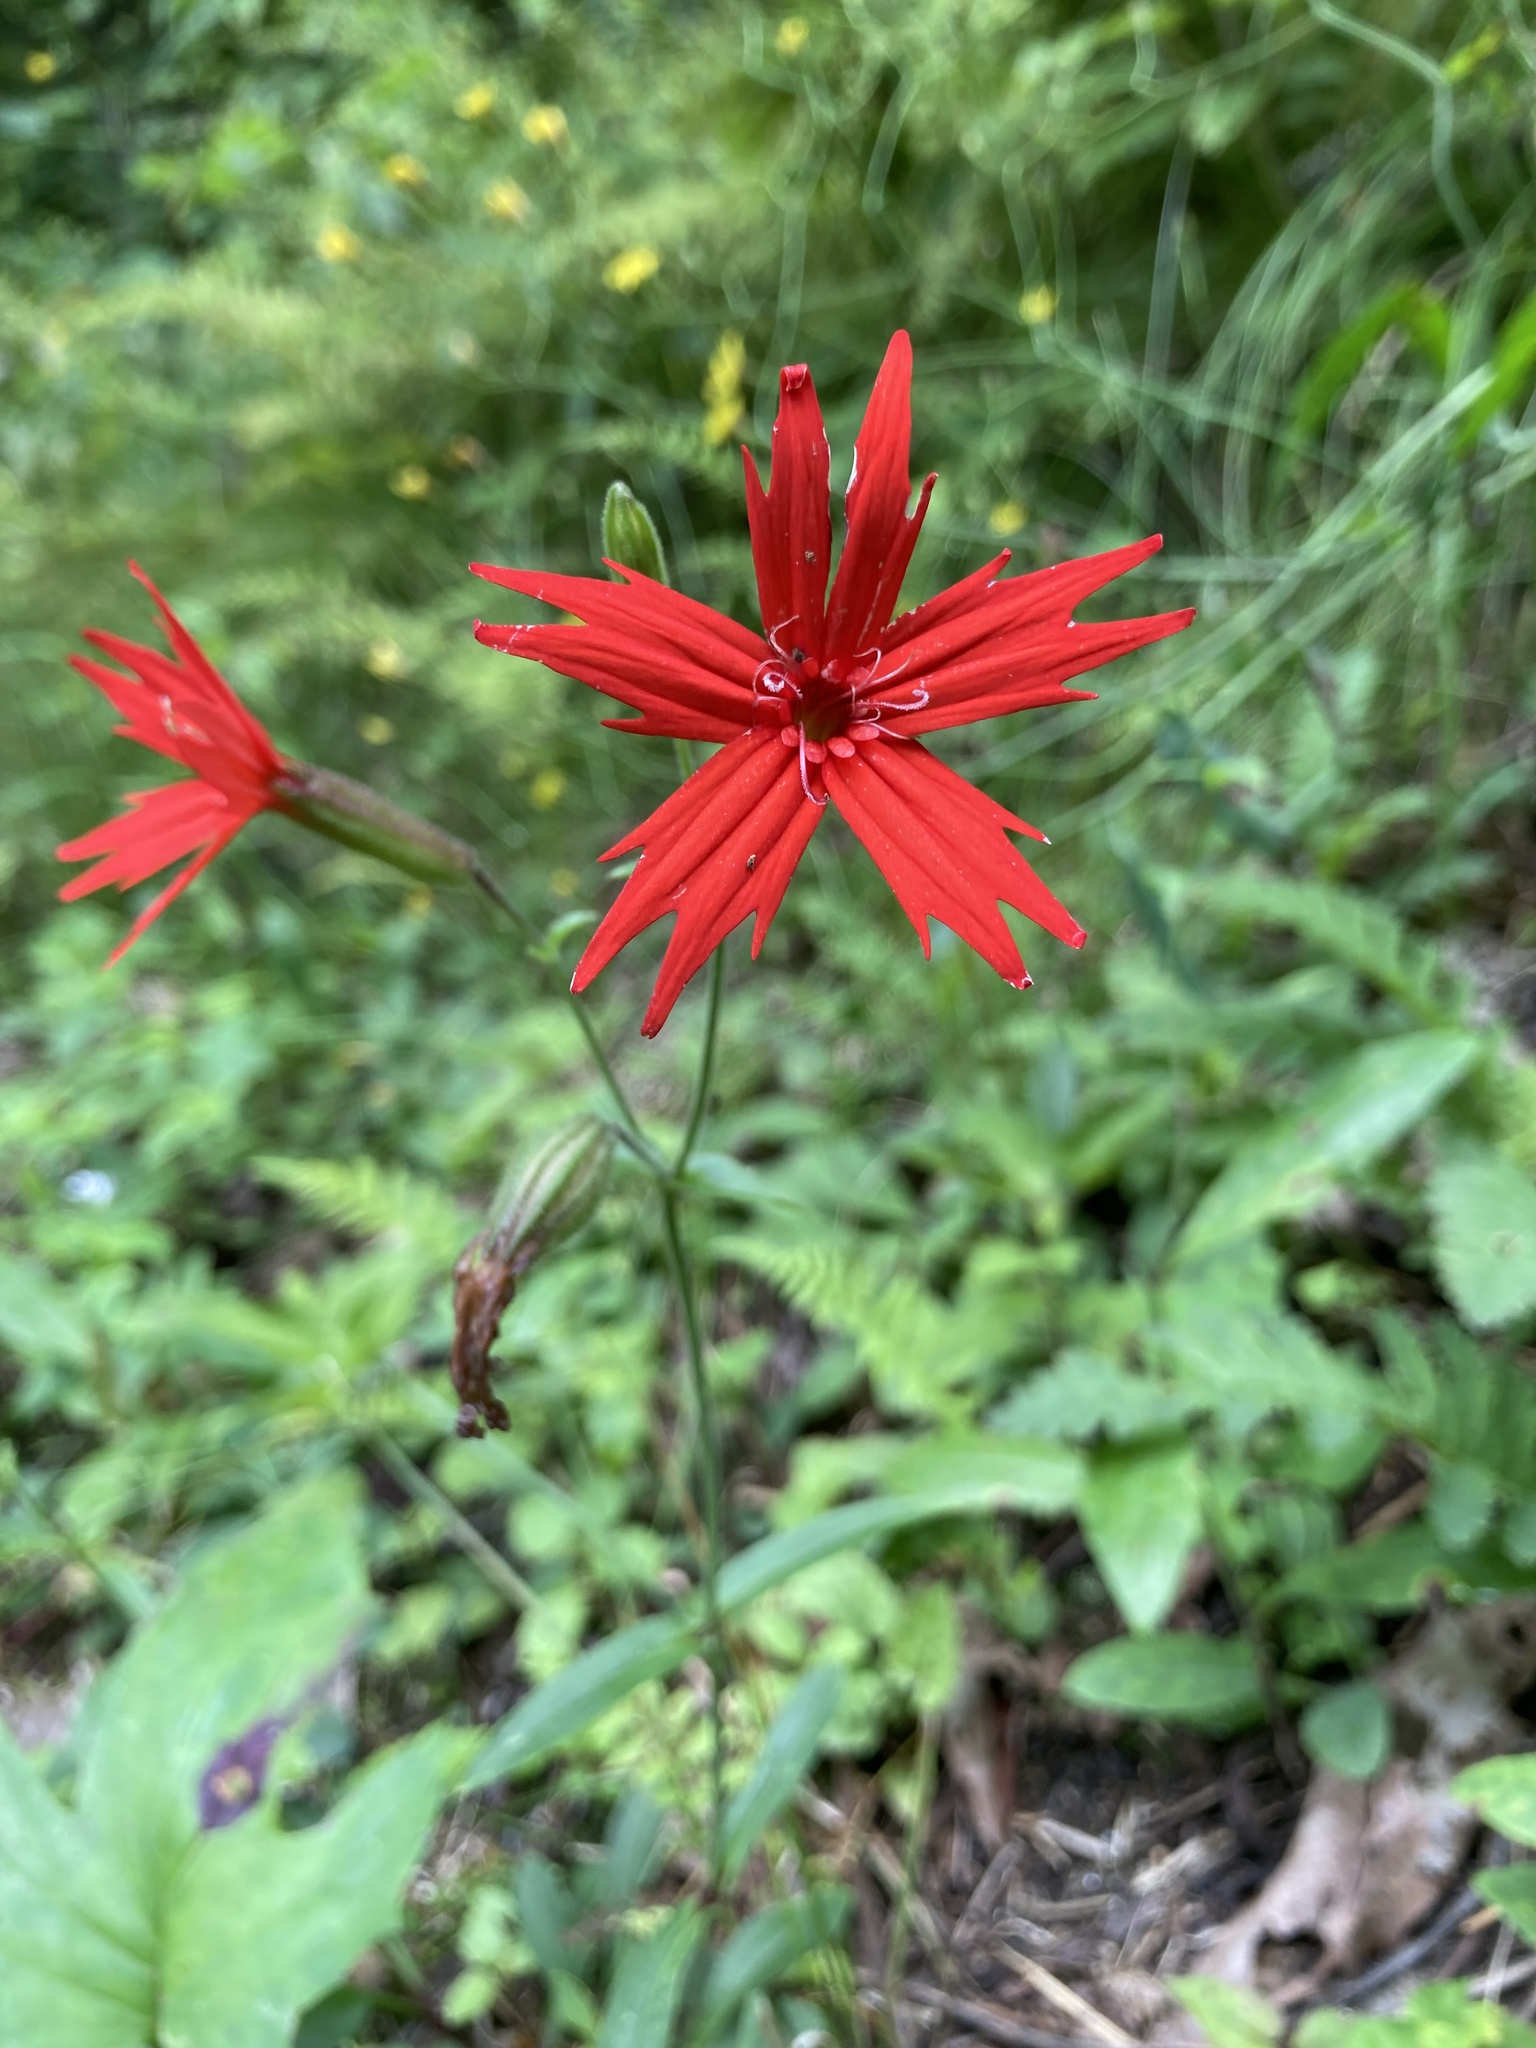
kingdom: Plantae
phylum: Tracheophyta
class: Magnoliopsida
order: Caryophyllales
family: Caryophyllaceae
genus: Silene
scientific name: Silene virginica
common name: Fire-pink
